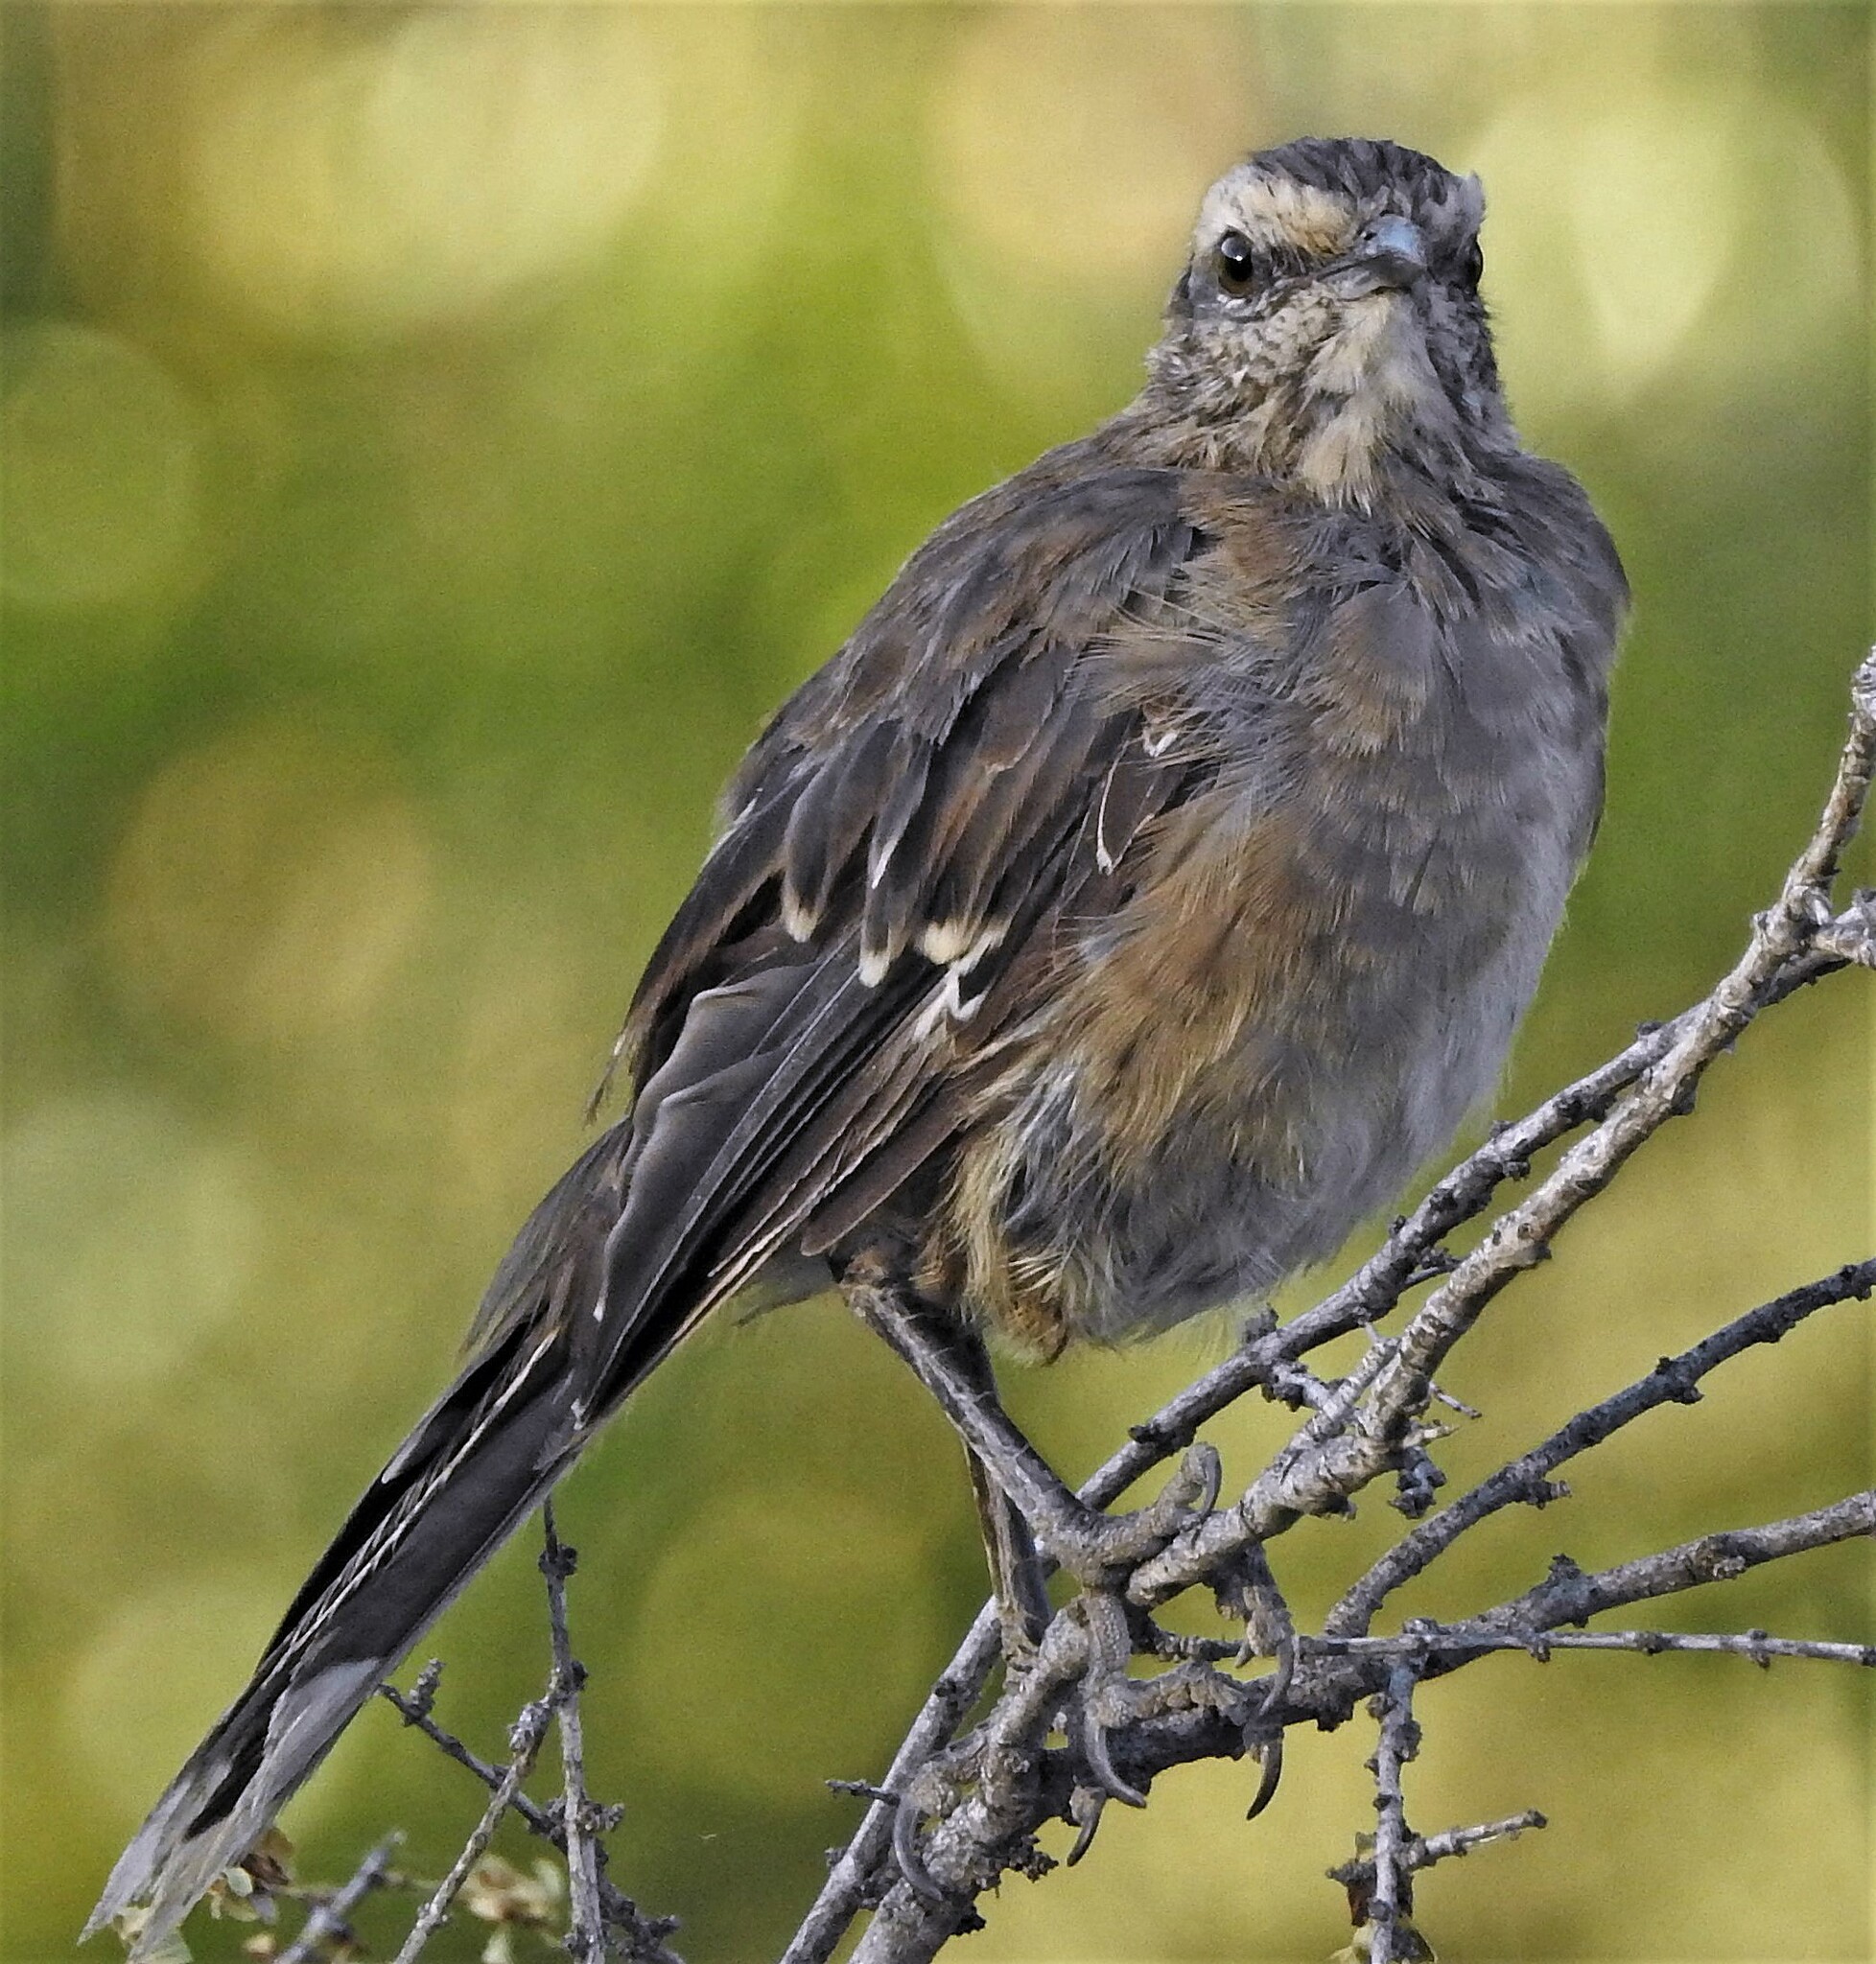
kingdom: Animalia
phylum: Chordata
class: Aves
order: Passeriformes
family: Mimidae
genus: Mimus
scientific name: Mimus thenca
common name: Chilean mockingbird
